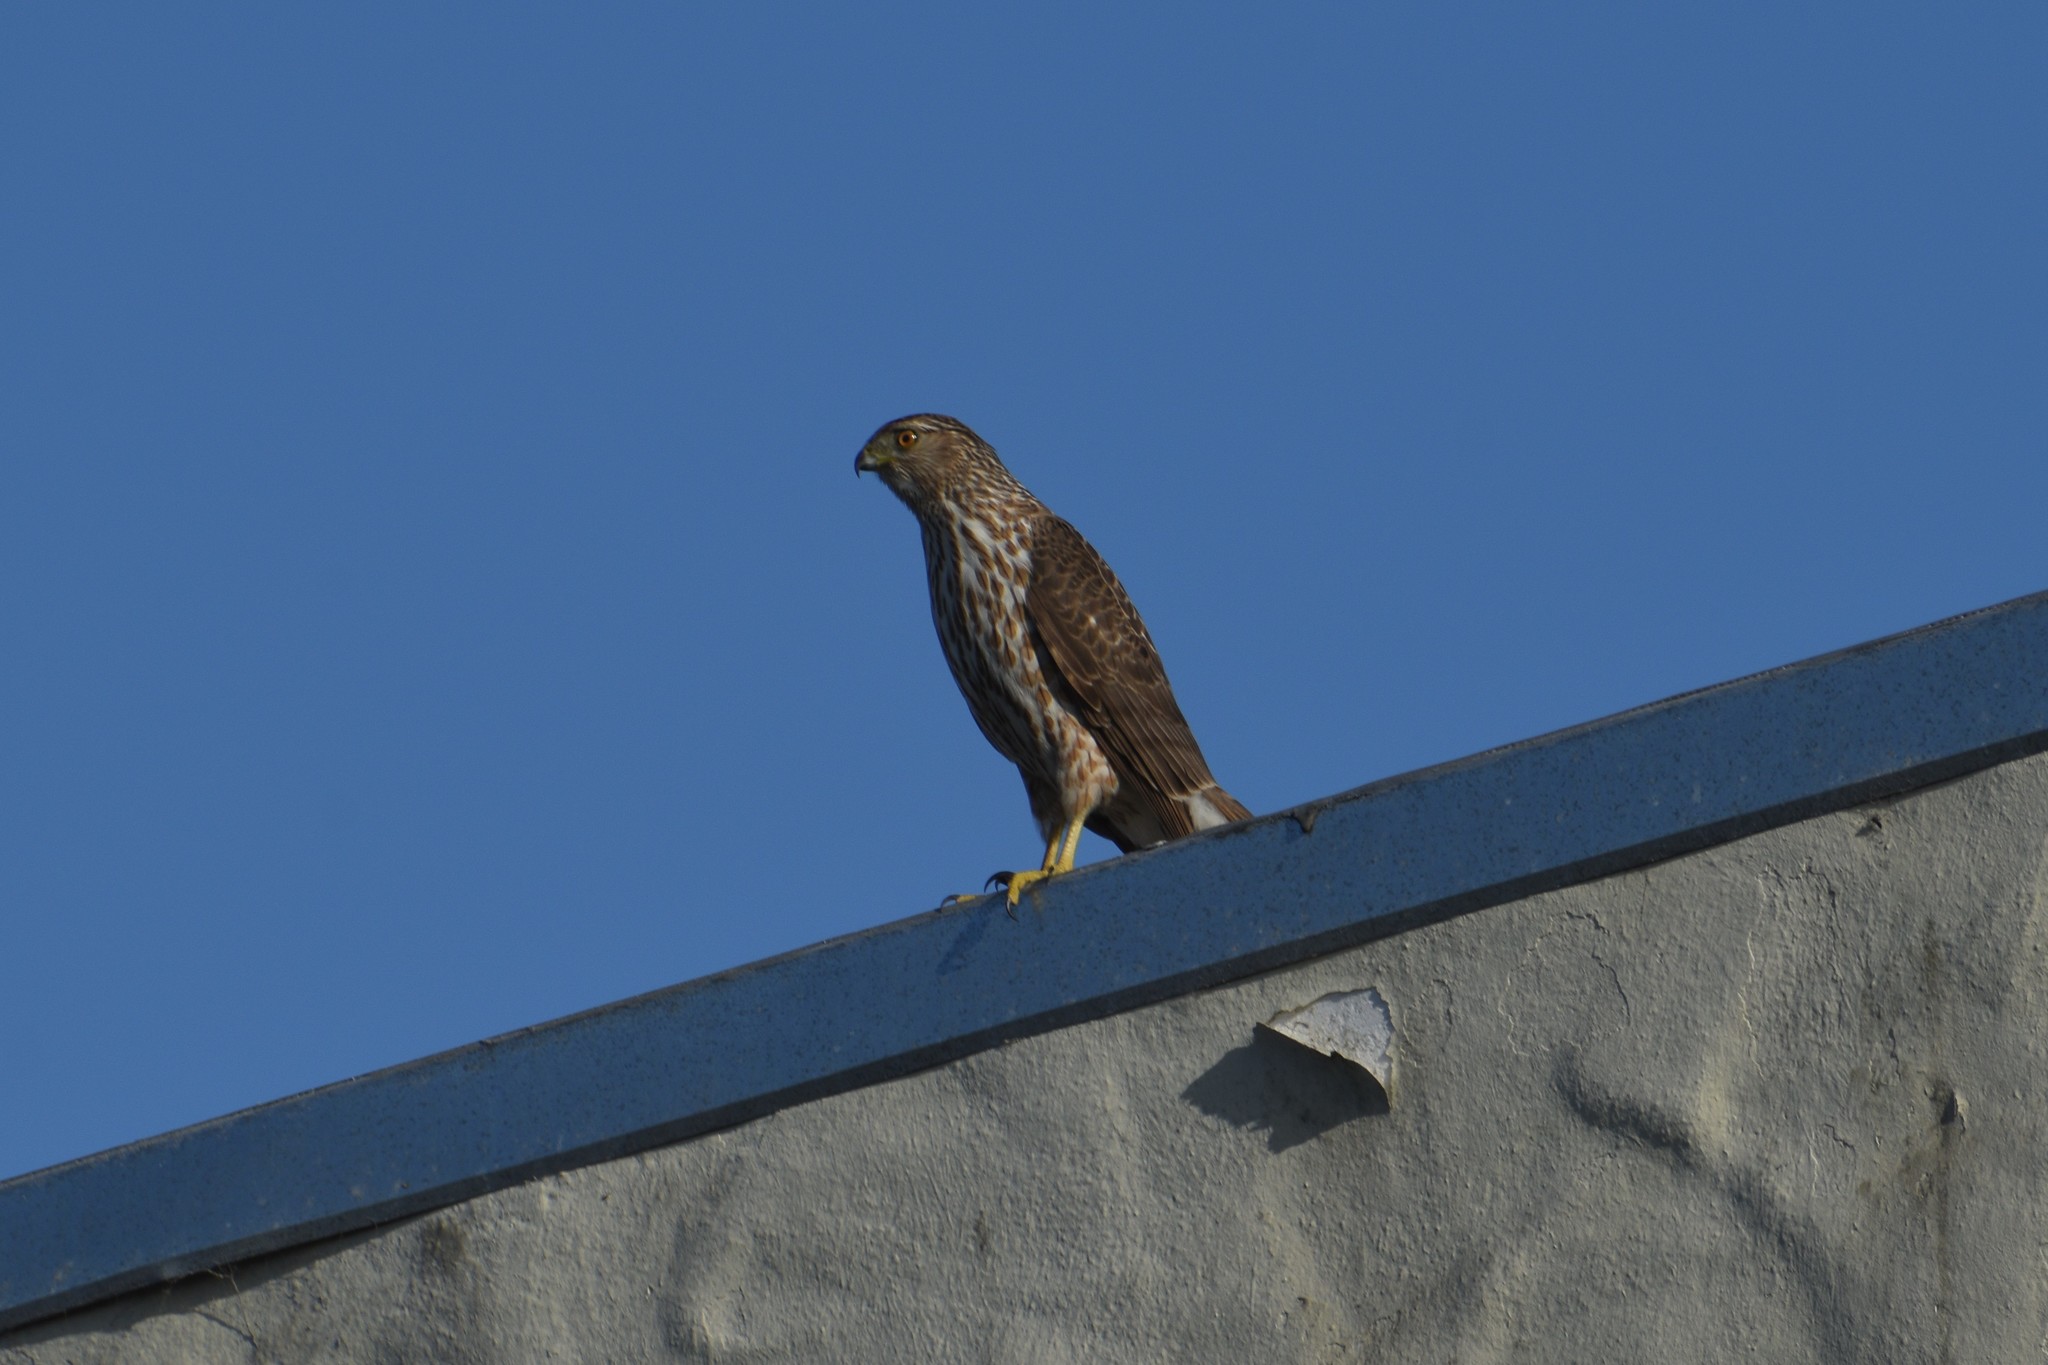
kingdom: Animalia
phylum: Chordata
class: Aves
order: Accipitriformes
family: Accipitridae
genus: Accipiter
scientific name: Accipiter cooperii
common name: Cooper's hawk
